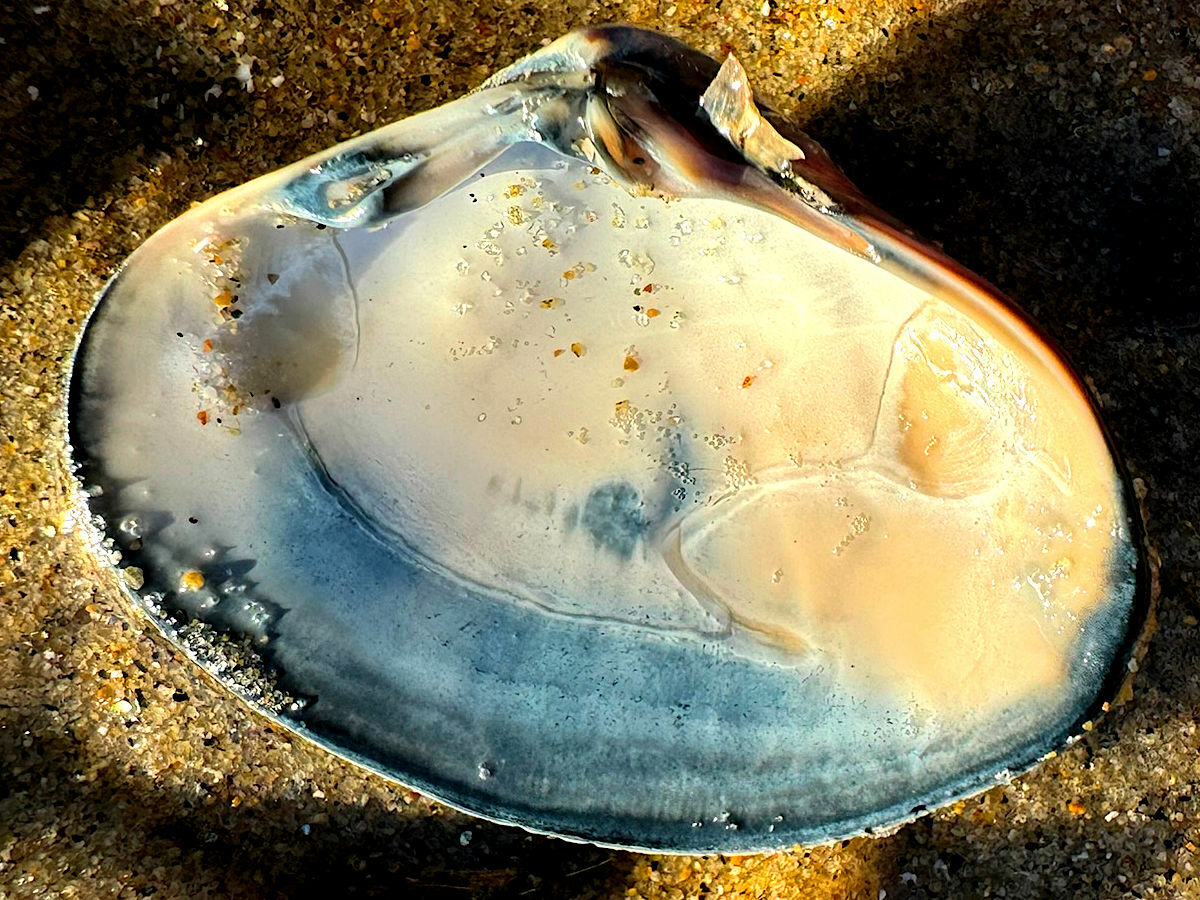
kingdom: Animalia
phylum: Mollusca
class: Bivalvia
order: Venerida
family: Veneridae
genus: Tivela
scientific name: Tivela stultorum
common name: Pismo clam
